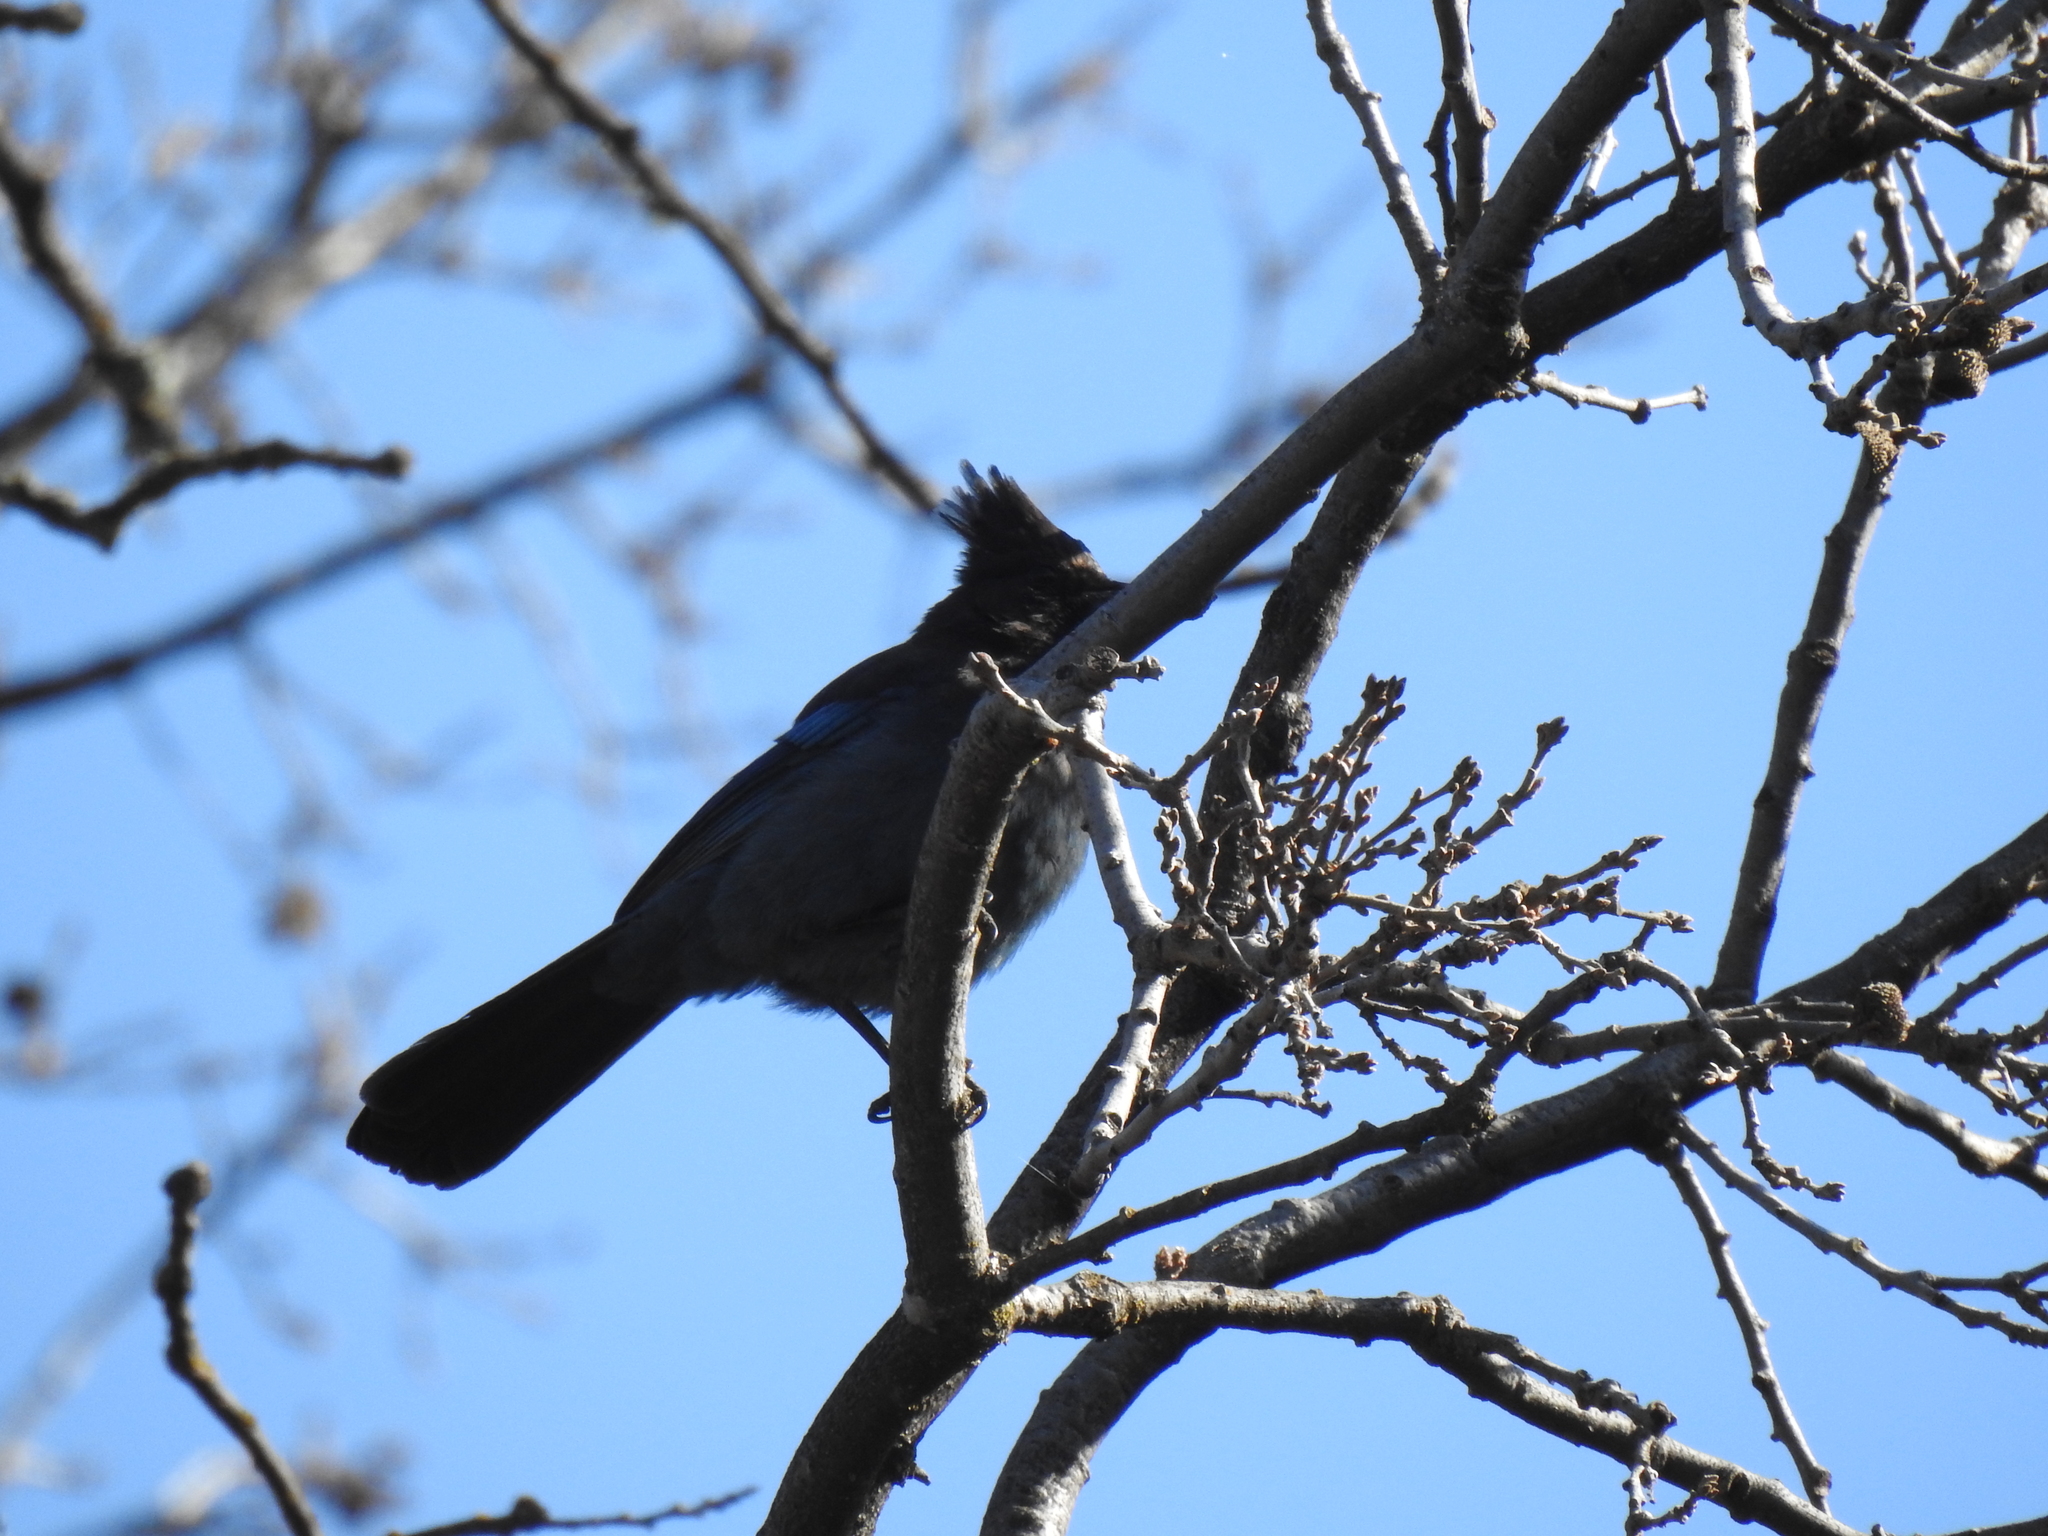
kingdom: Animalia
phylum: Chordata
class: Aves
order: Passeriformes
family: Corvidae
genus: Cyanocitta
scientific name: Cyanocitta stelleri
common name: Steller's jay
